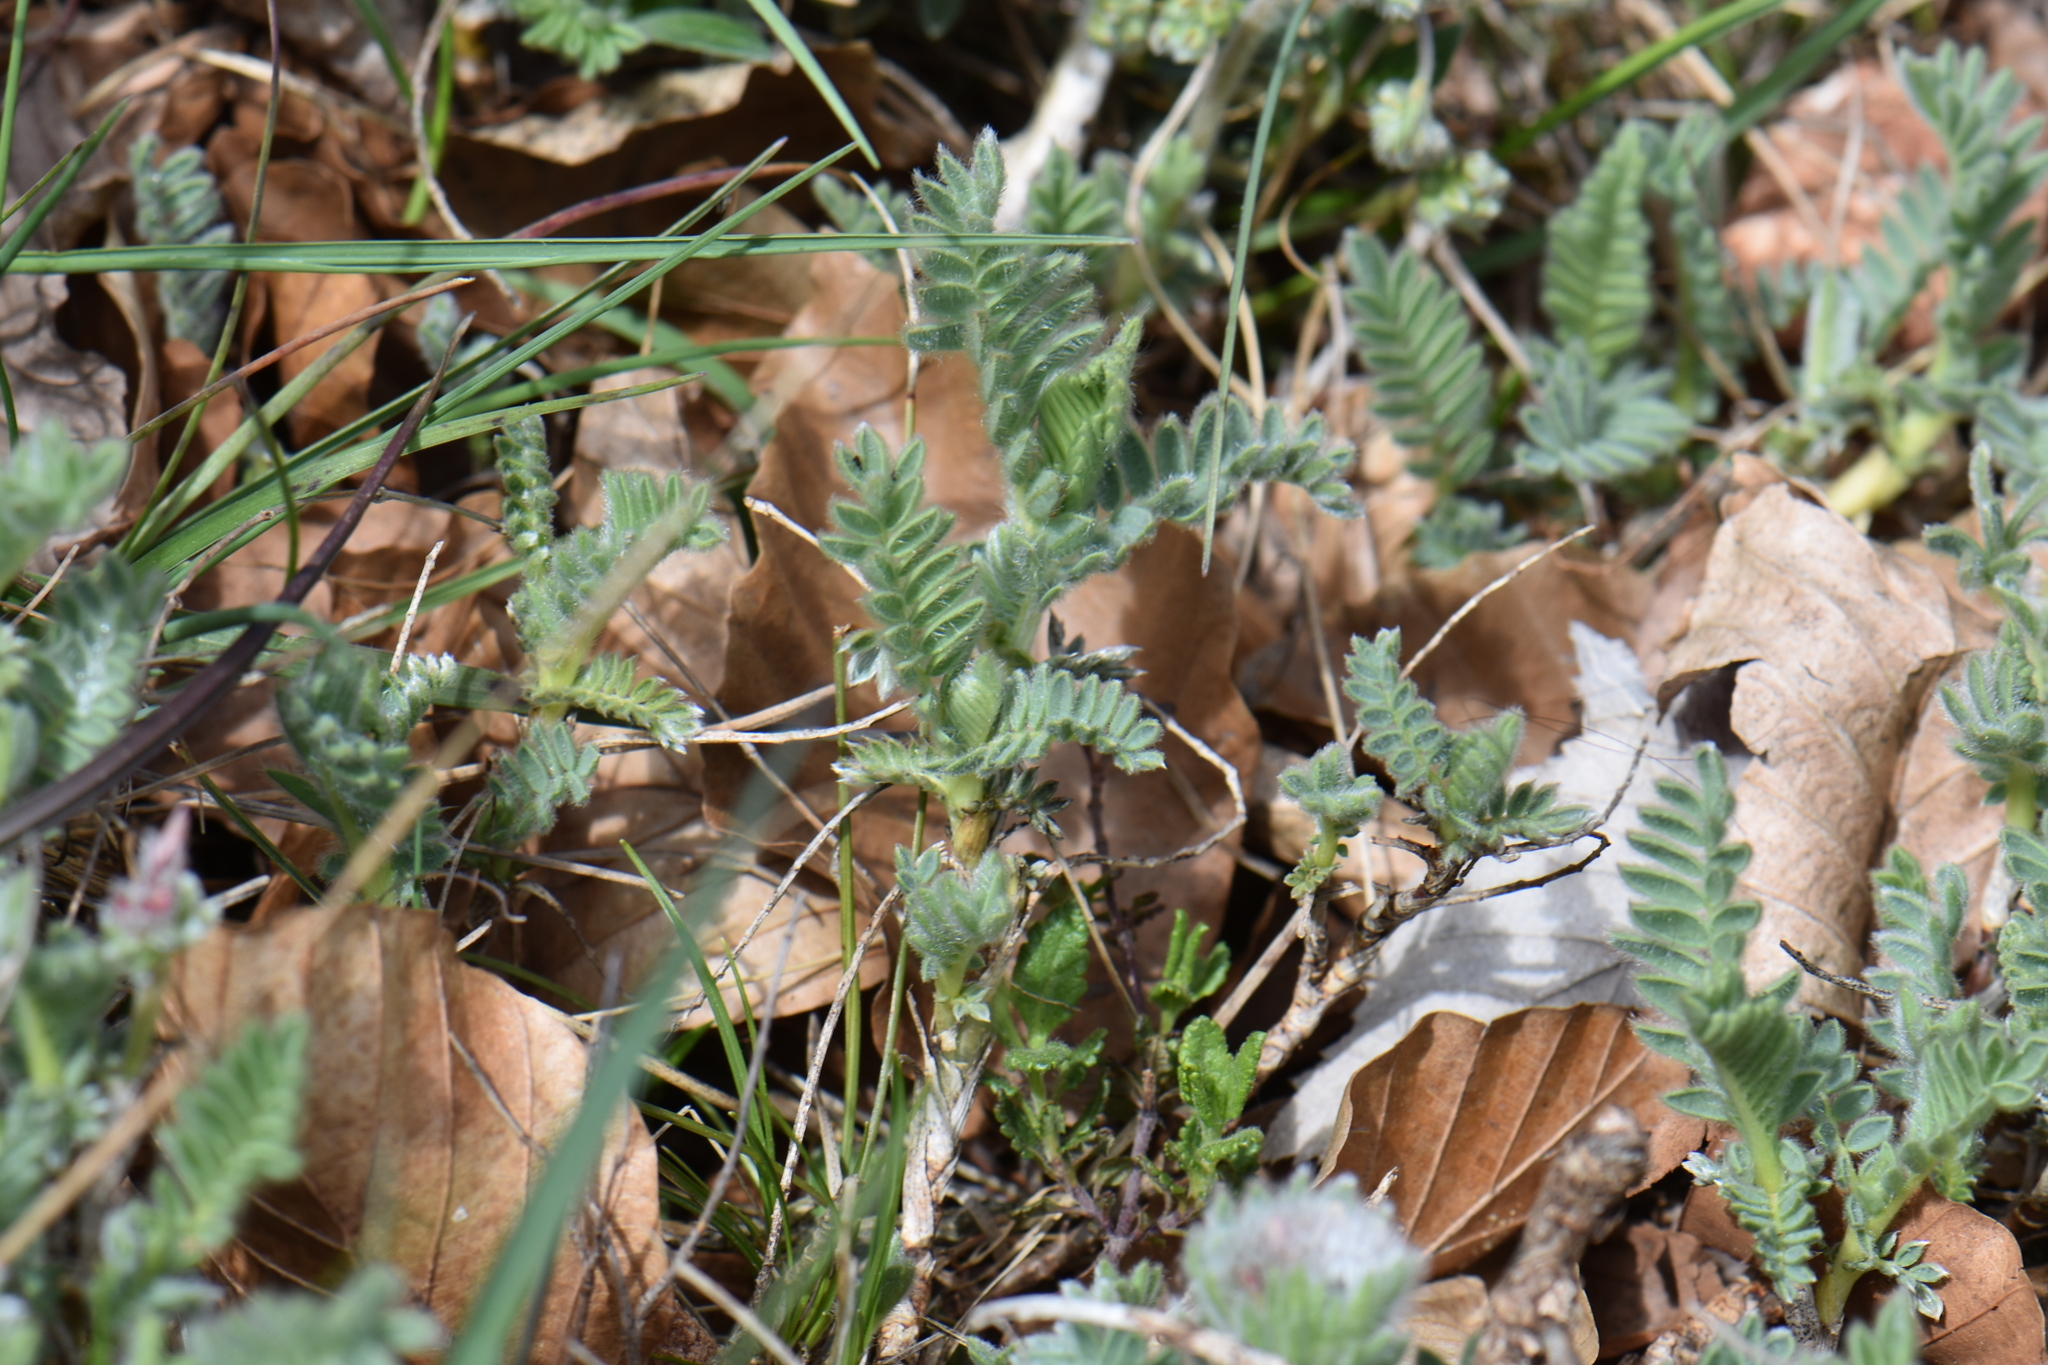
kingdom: Plantae
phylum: Tracheophyta
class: Magnoliopsida
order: Fabales
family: Fabaceae
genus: Anthyllis
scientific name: Anthyllis montana
